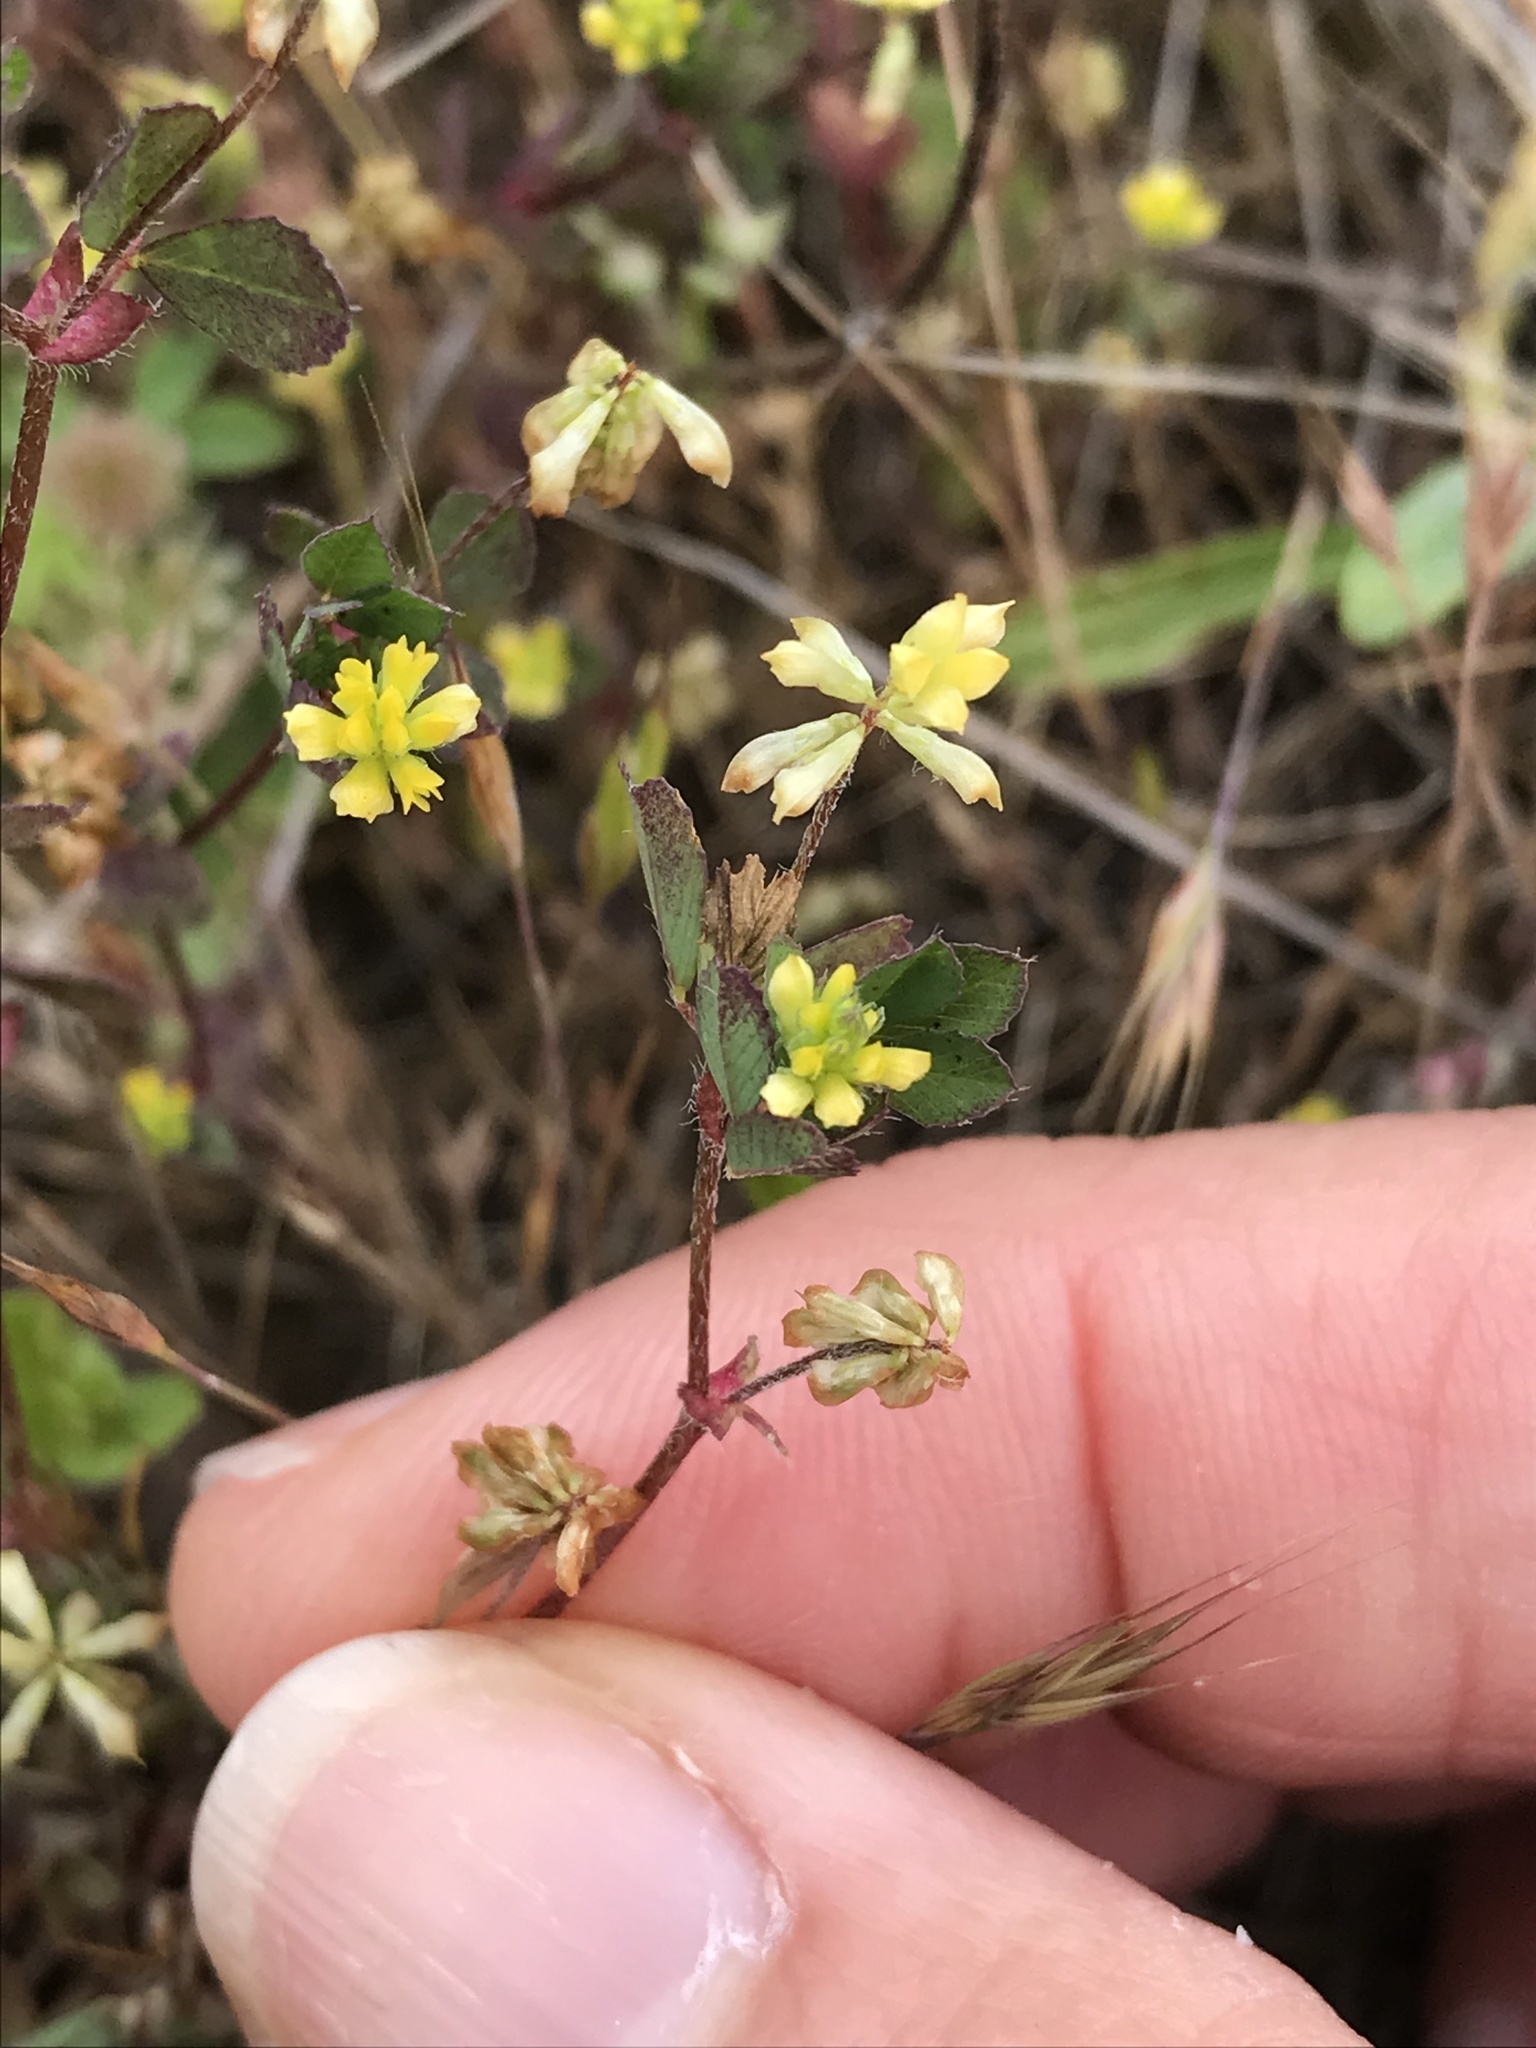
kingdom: Plantae
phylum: Tracheophyta
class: Magnoliopsida
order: Fabales
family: Fabaceae
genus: Trifolium
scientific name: Trifolium dubium
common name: Suckling clover
